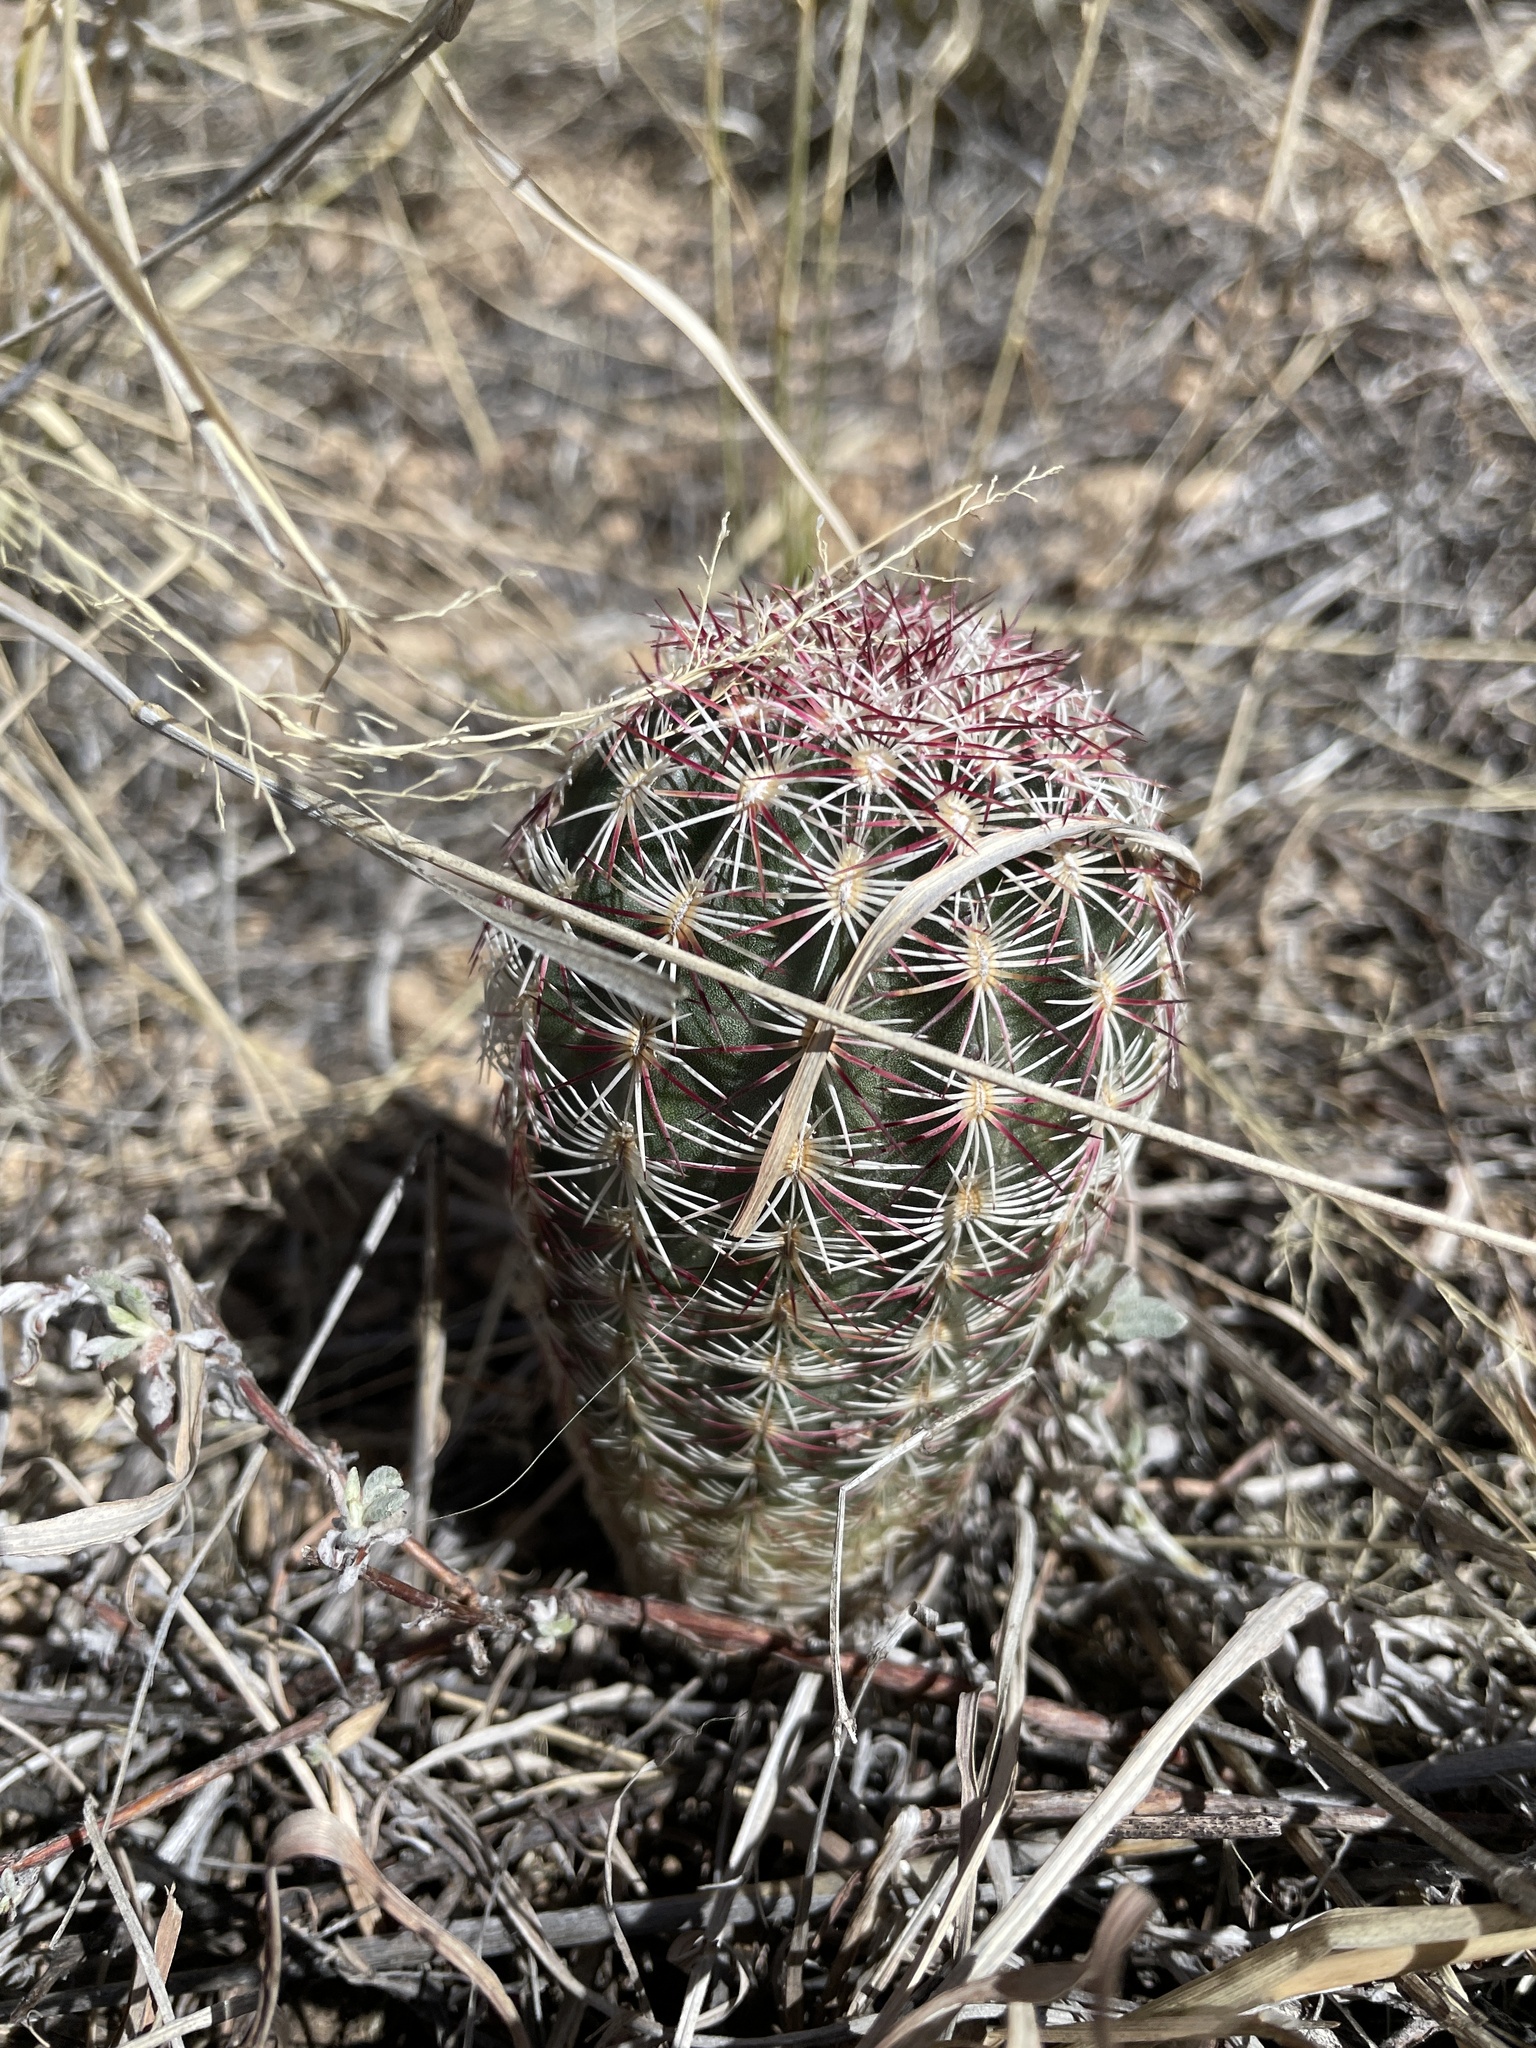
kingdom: Plantae
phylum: Tracheophyta
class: Magnoliopsida
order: Caryophyllales
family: Cactaceae
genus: Echinocereus
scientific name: Echinocereus viridiflorus
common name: Nylon hedgehog cactus
